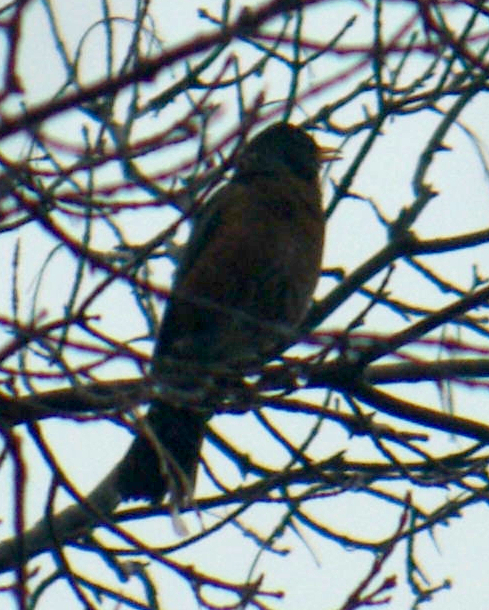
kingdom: Animalia
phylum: Chordata
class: Aves
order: Passeriformes
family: Turdidae
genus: Turdus
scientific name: Turdus migratorius
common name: American robin
